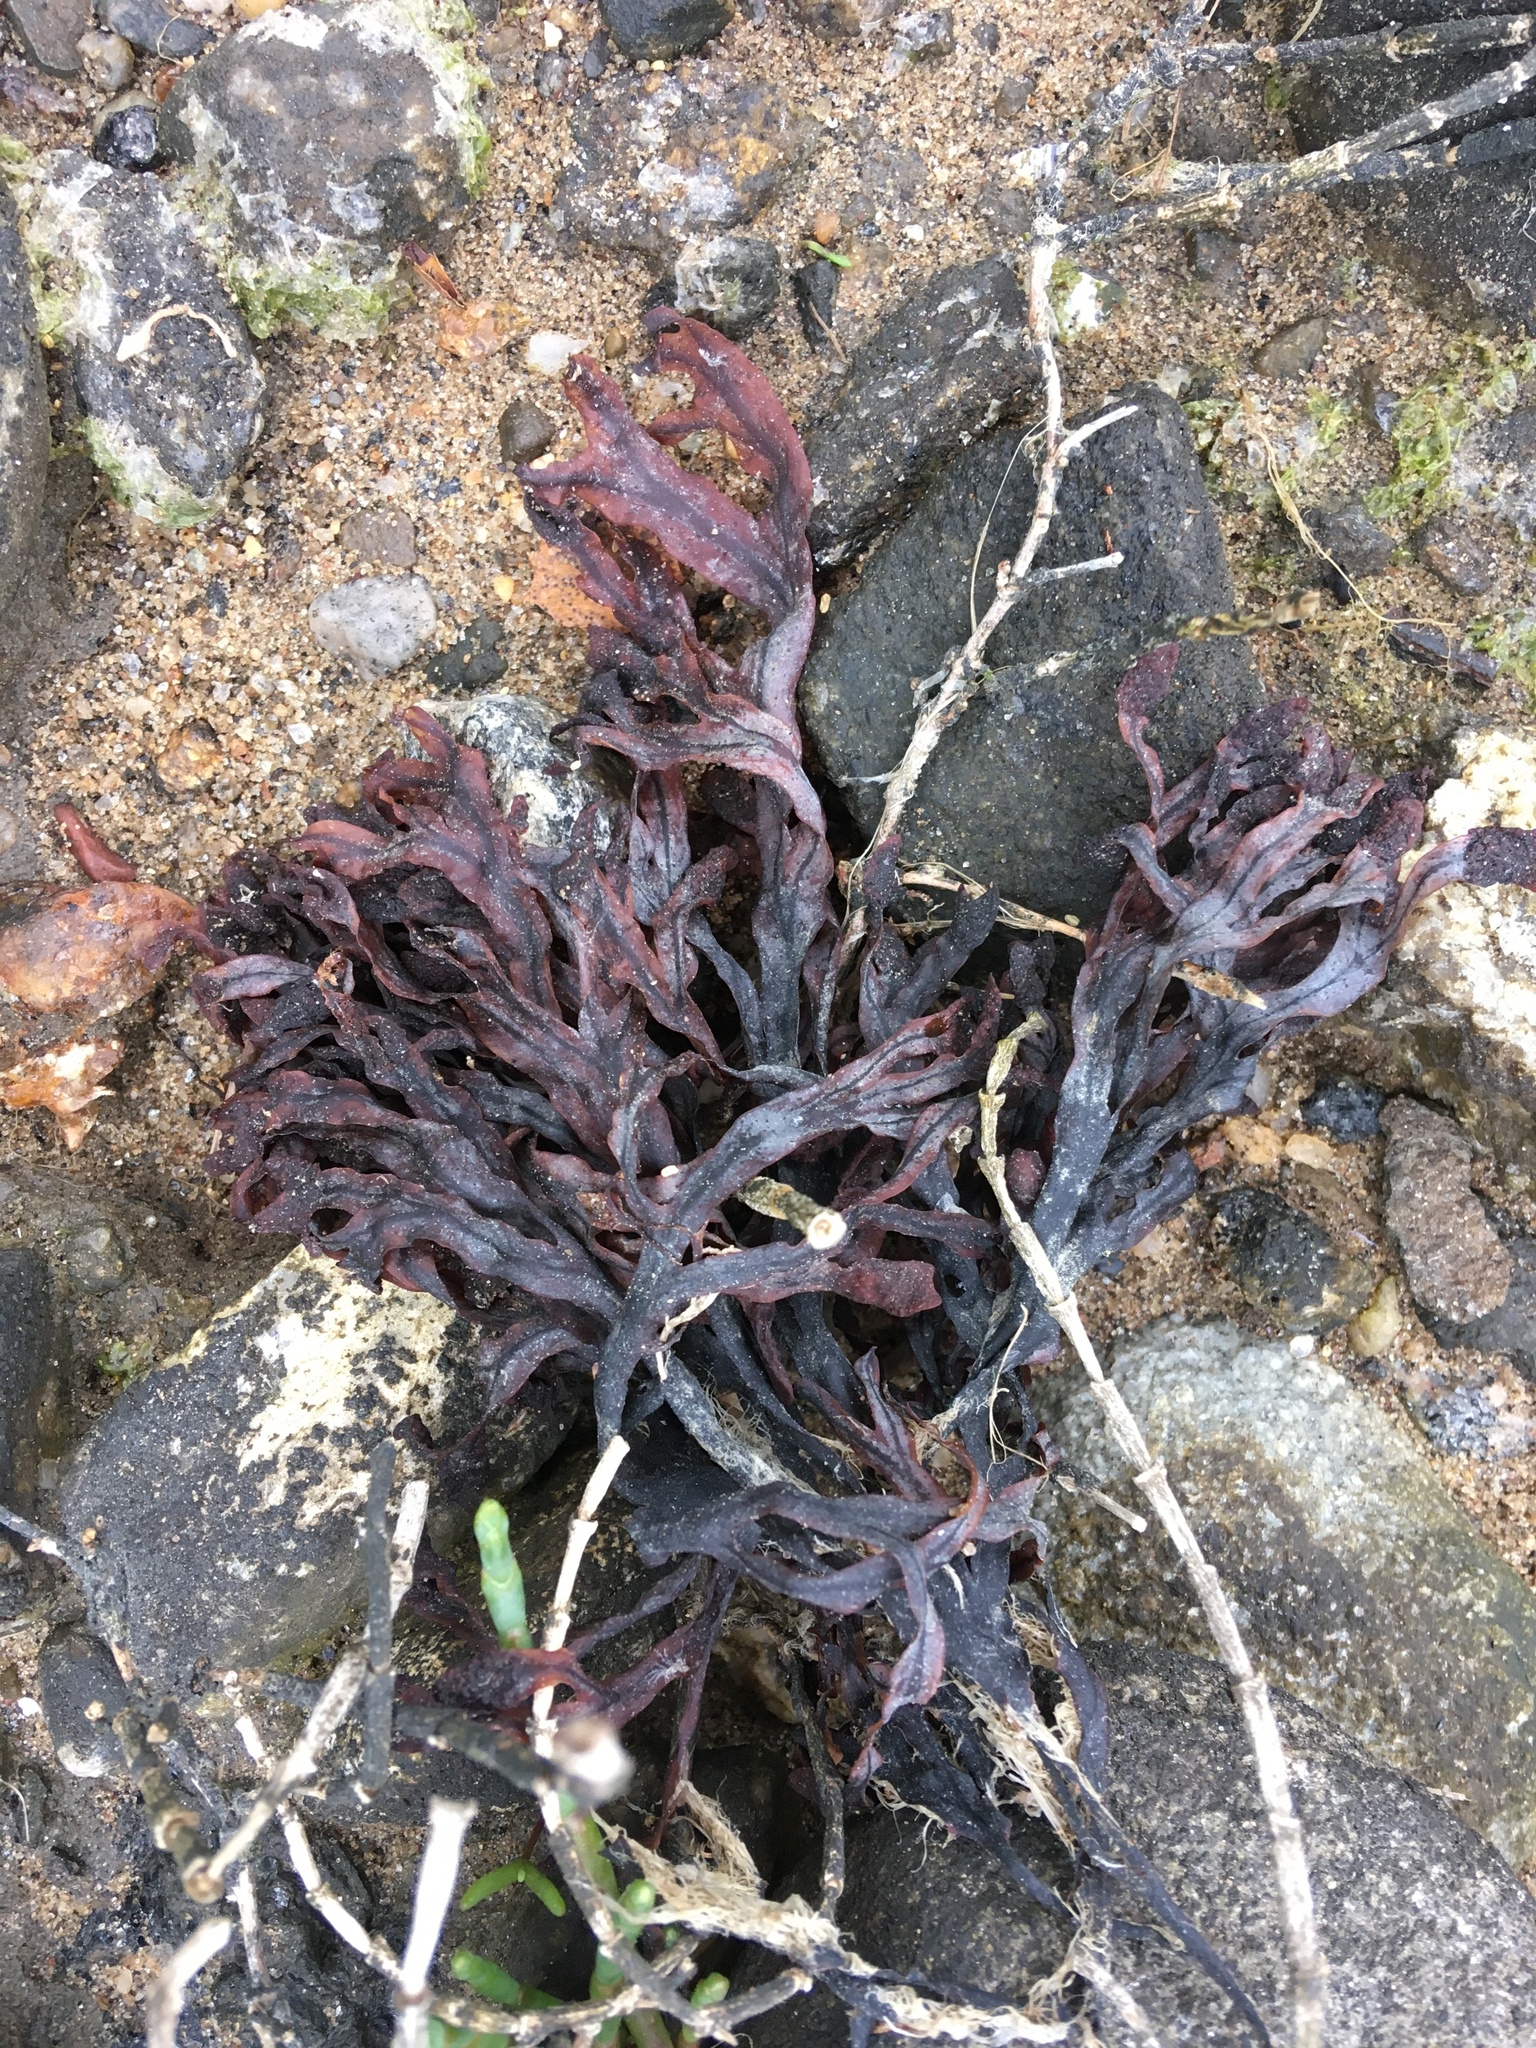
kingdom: Chromista
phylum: Ochrophyta
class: Phaeophyceae
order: Fucales
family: Fucaceae
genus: Fucus
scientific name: Fucus distichus
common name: Rockweed
